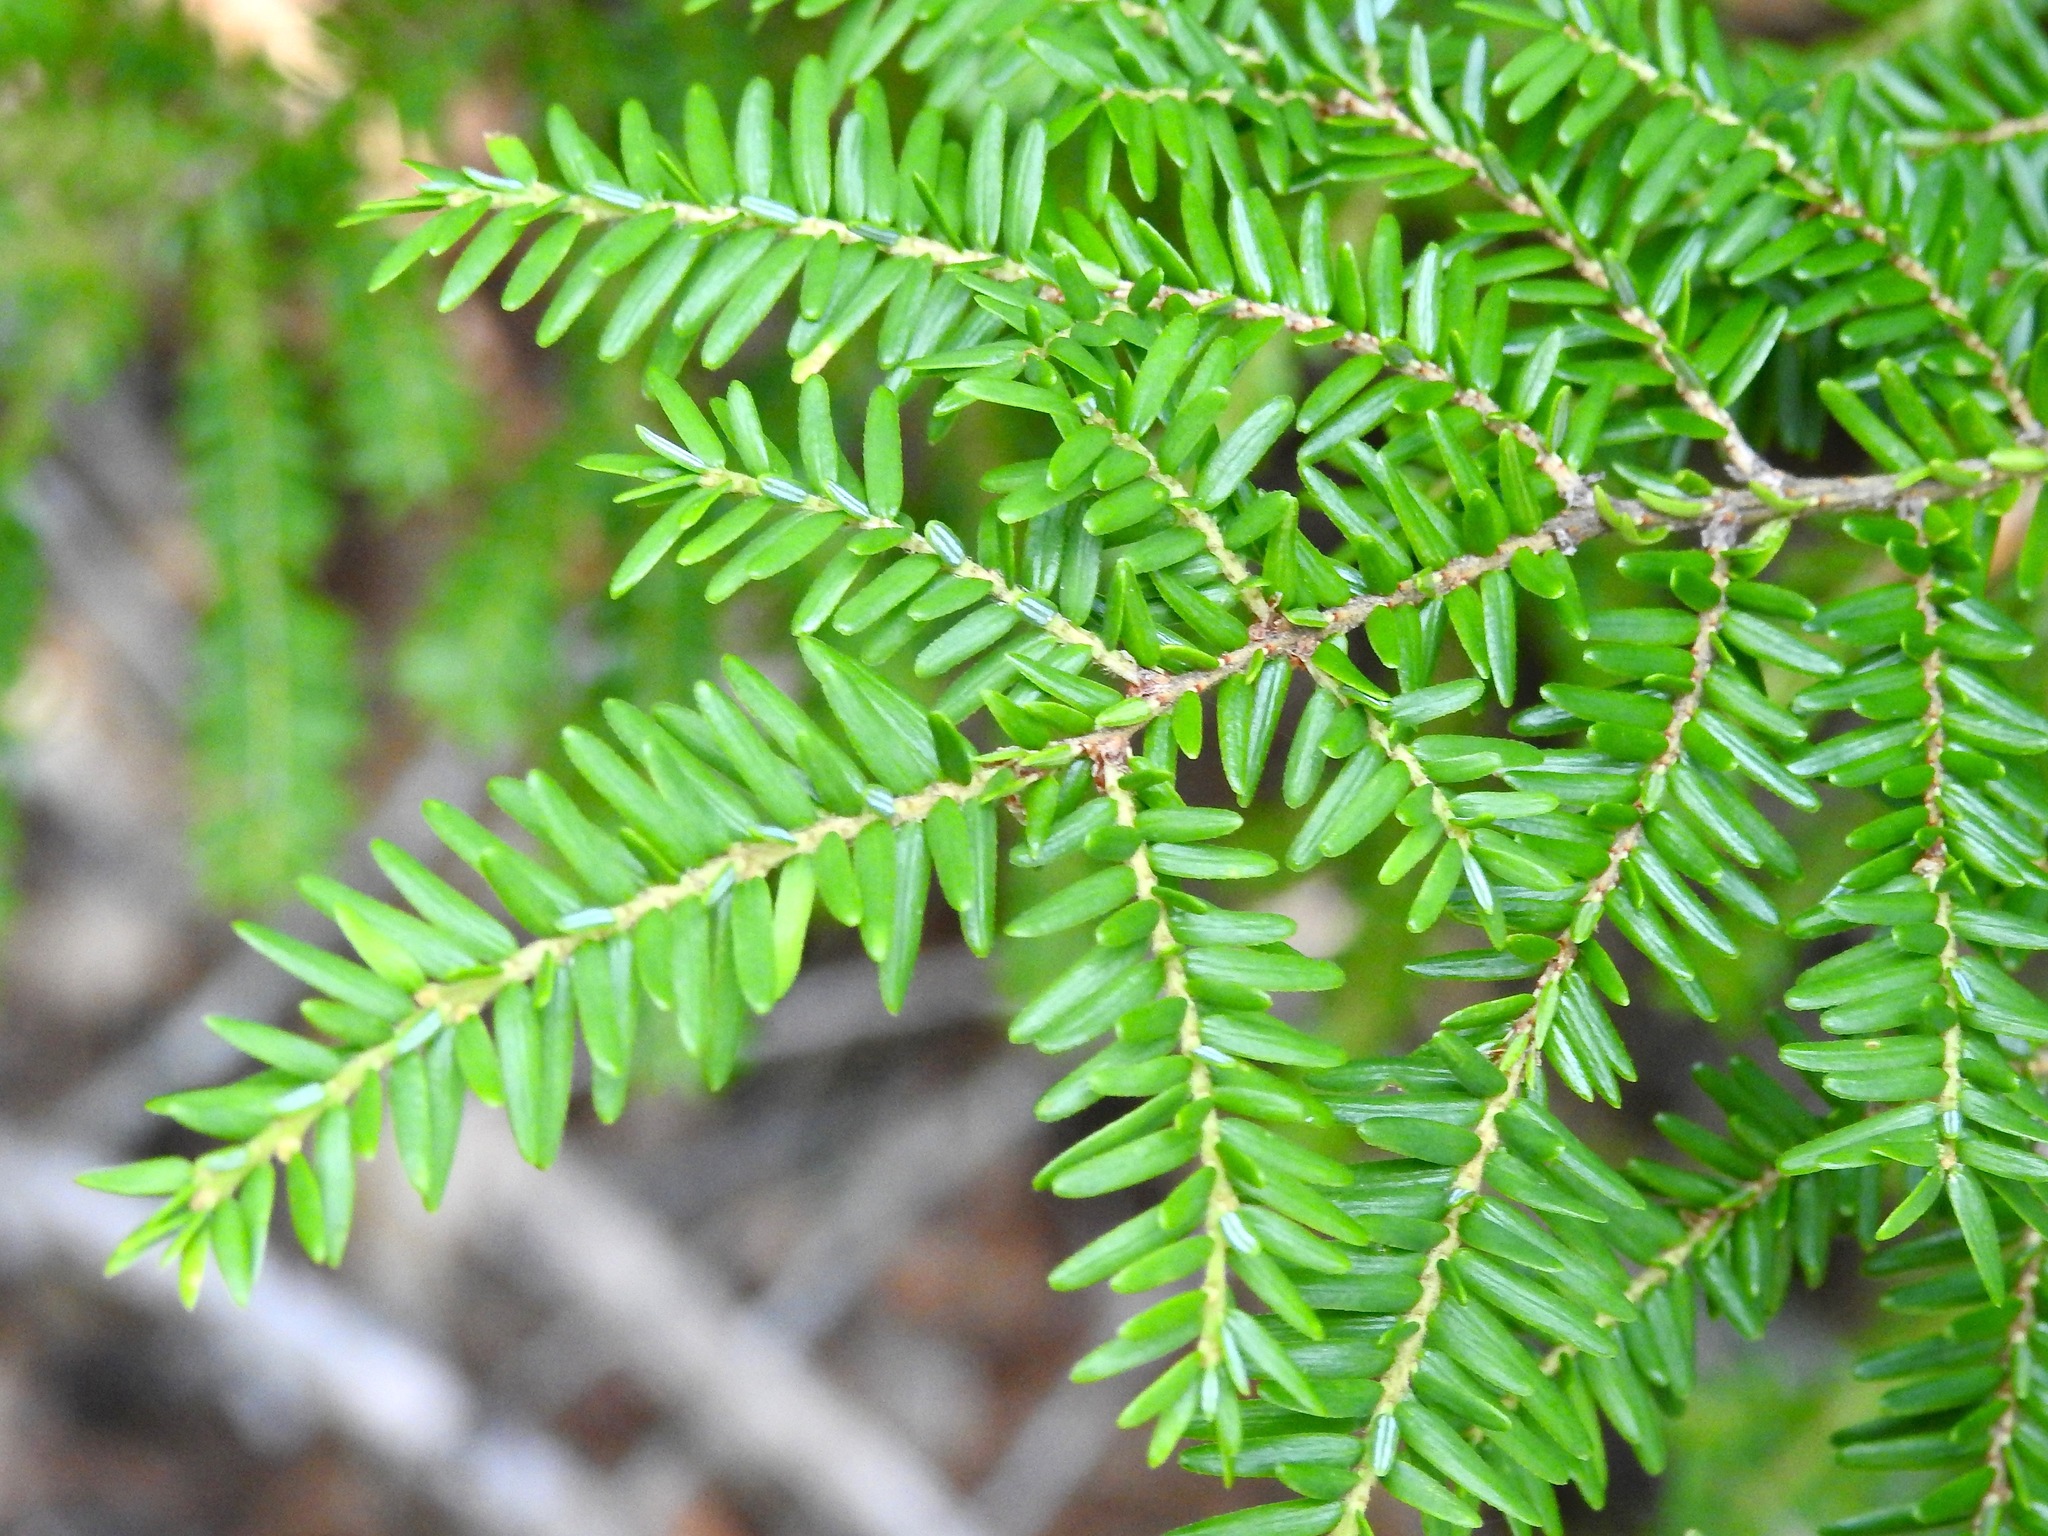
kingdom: Plantae
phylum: Tracheophyta
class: Pinopsida
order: Pinales
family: Pinaceae
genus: Tsuga
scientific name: Tsuga canadensis
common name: Eastern hemlock
